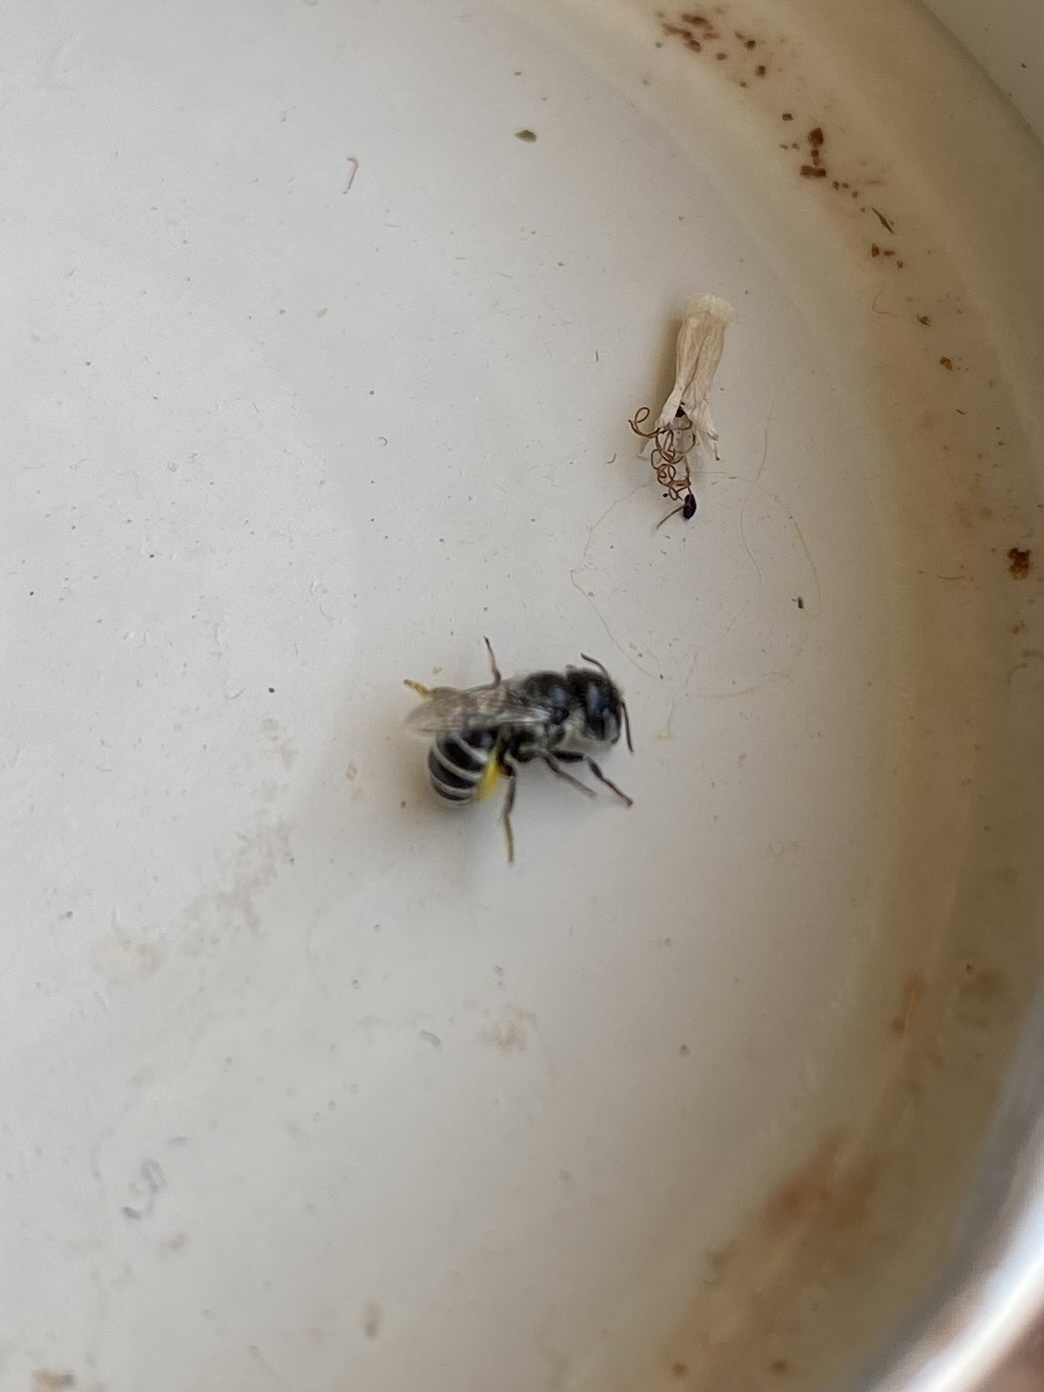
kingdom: Animalia
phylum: Arthropoda
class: Insecta
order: Hymenoptera
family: Megachilidae
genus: Ashmeadiella
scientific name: Ashmeadiella
